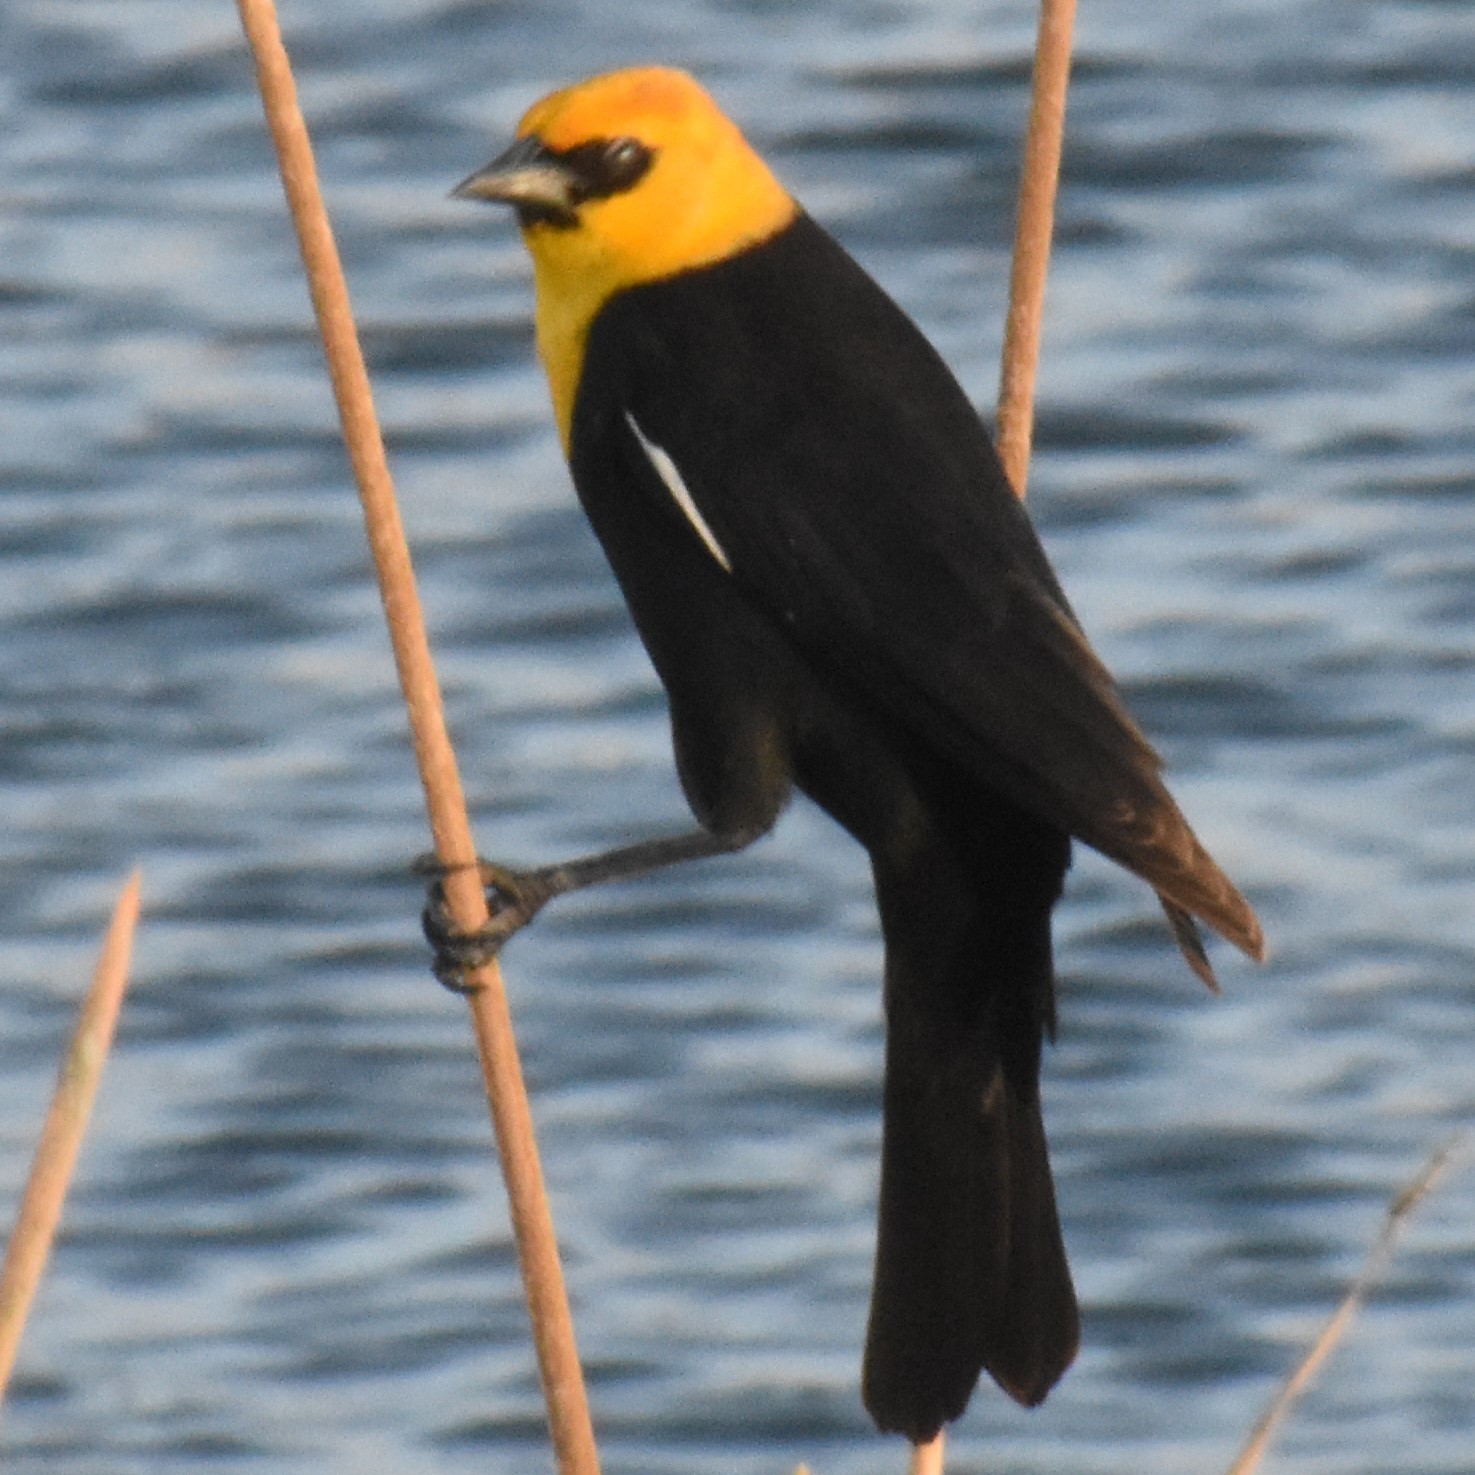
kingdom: Animalia
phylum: Chordata
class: Aves
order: Passeriformes
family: Icteridae
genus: Xanthocephalus
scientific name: Xanthocephalus xanthocephalus
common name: Yellow-headed blackbird
